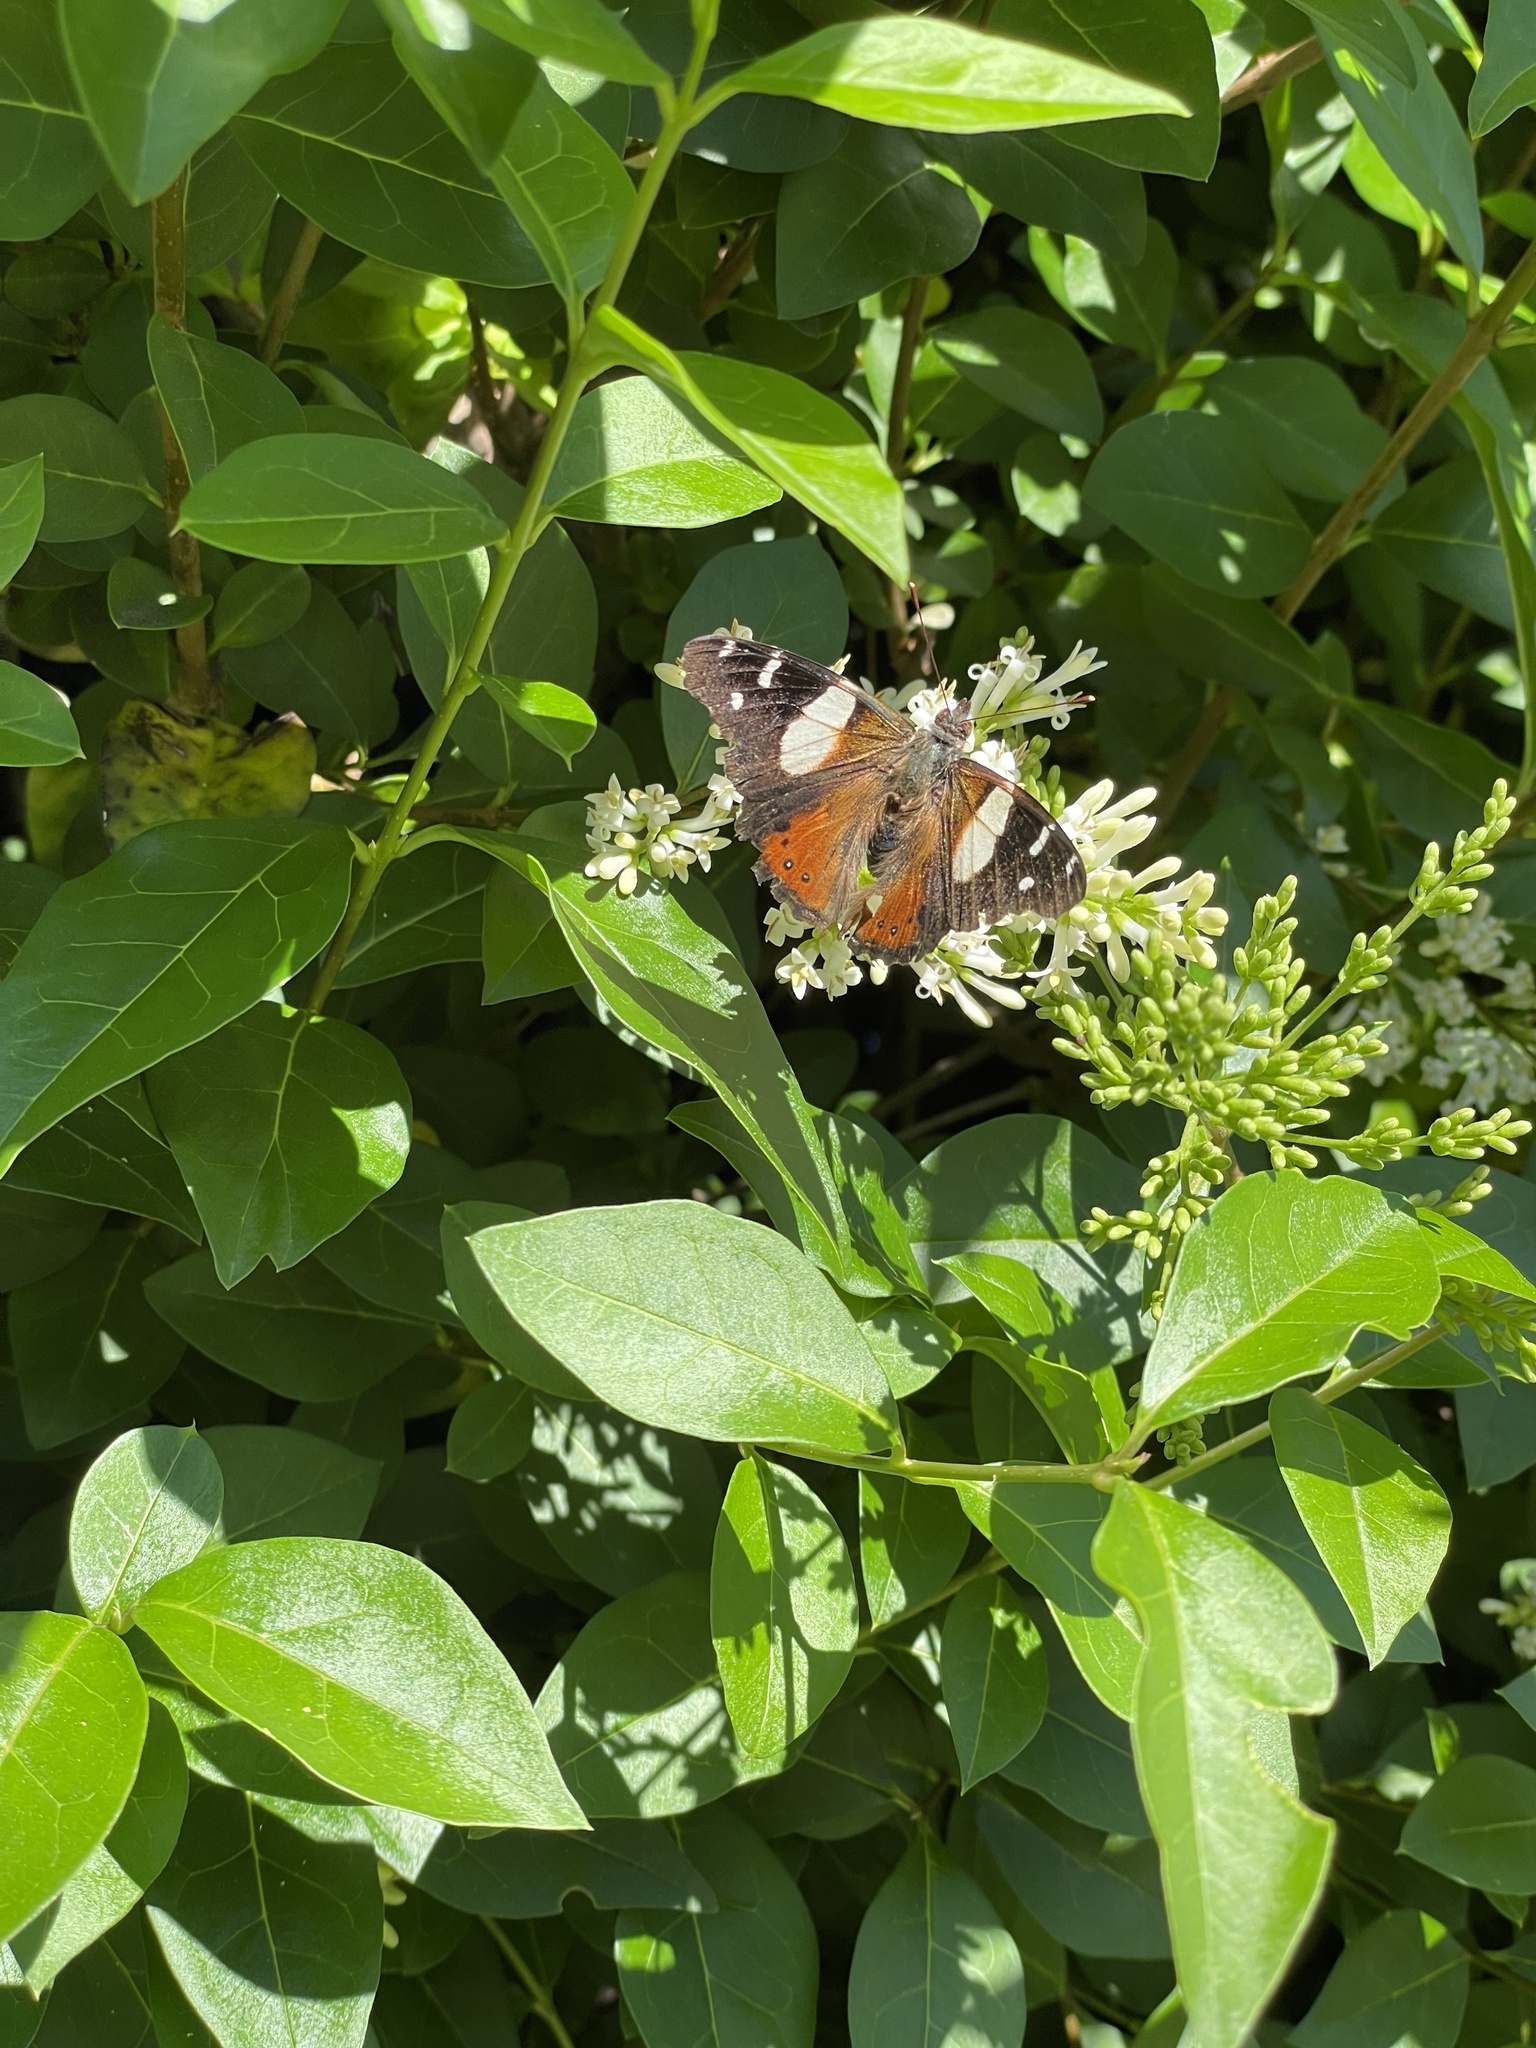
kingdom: Animalia
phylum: Arthropoda
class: Insecta
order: Lepidoptera
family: Nymphalidae
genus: Vanessa
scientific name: Vanessa itea
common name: Yellow admiral
